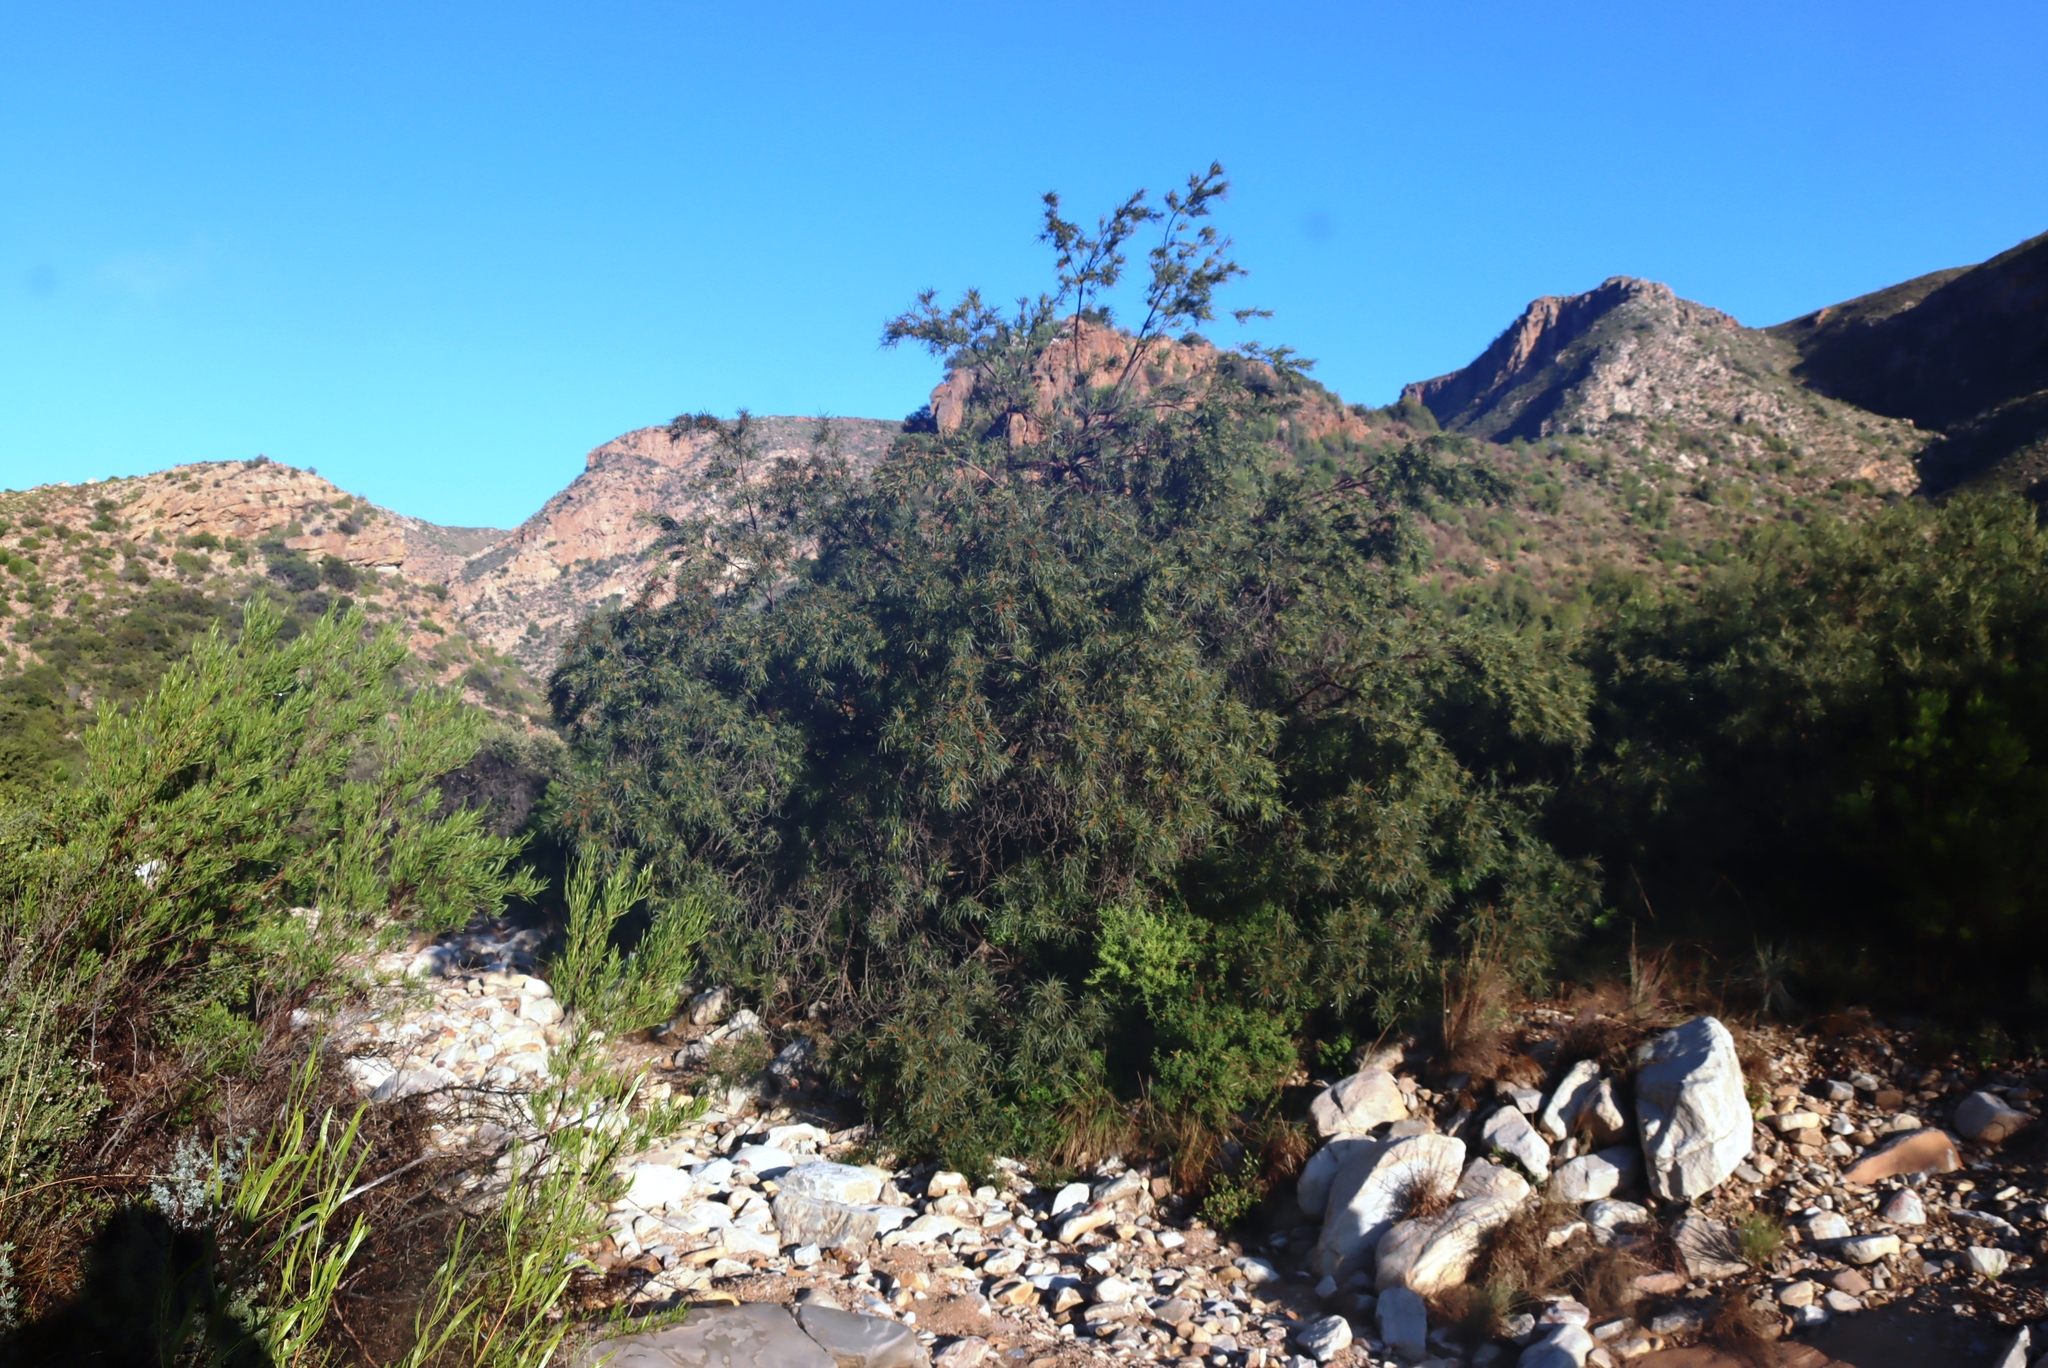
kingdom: Plantae
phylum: Tracheophyta
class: Magnoliopsida
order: Sapindales
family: Anacardiaceae
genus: Searsia
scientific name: Searsia lancea
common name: Cashew
